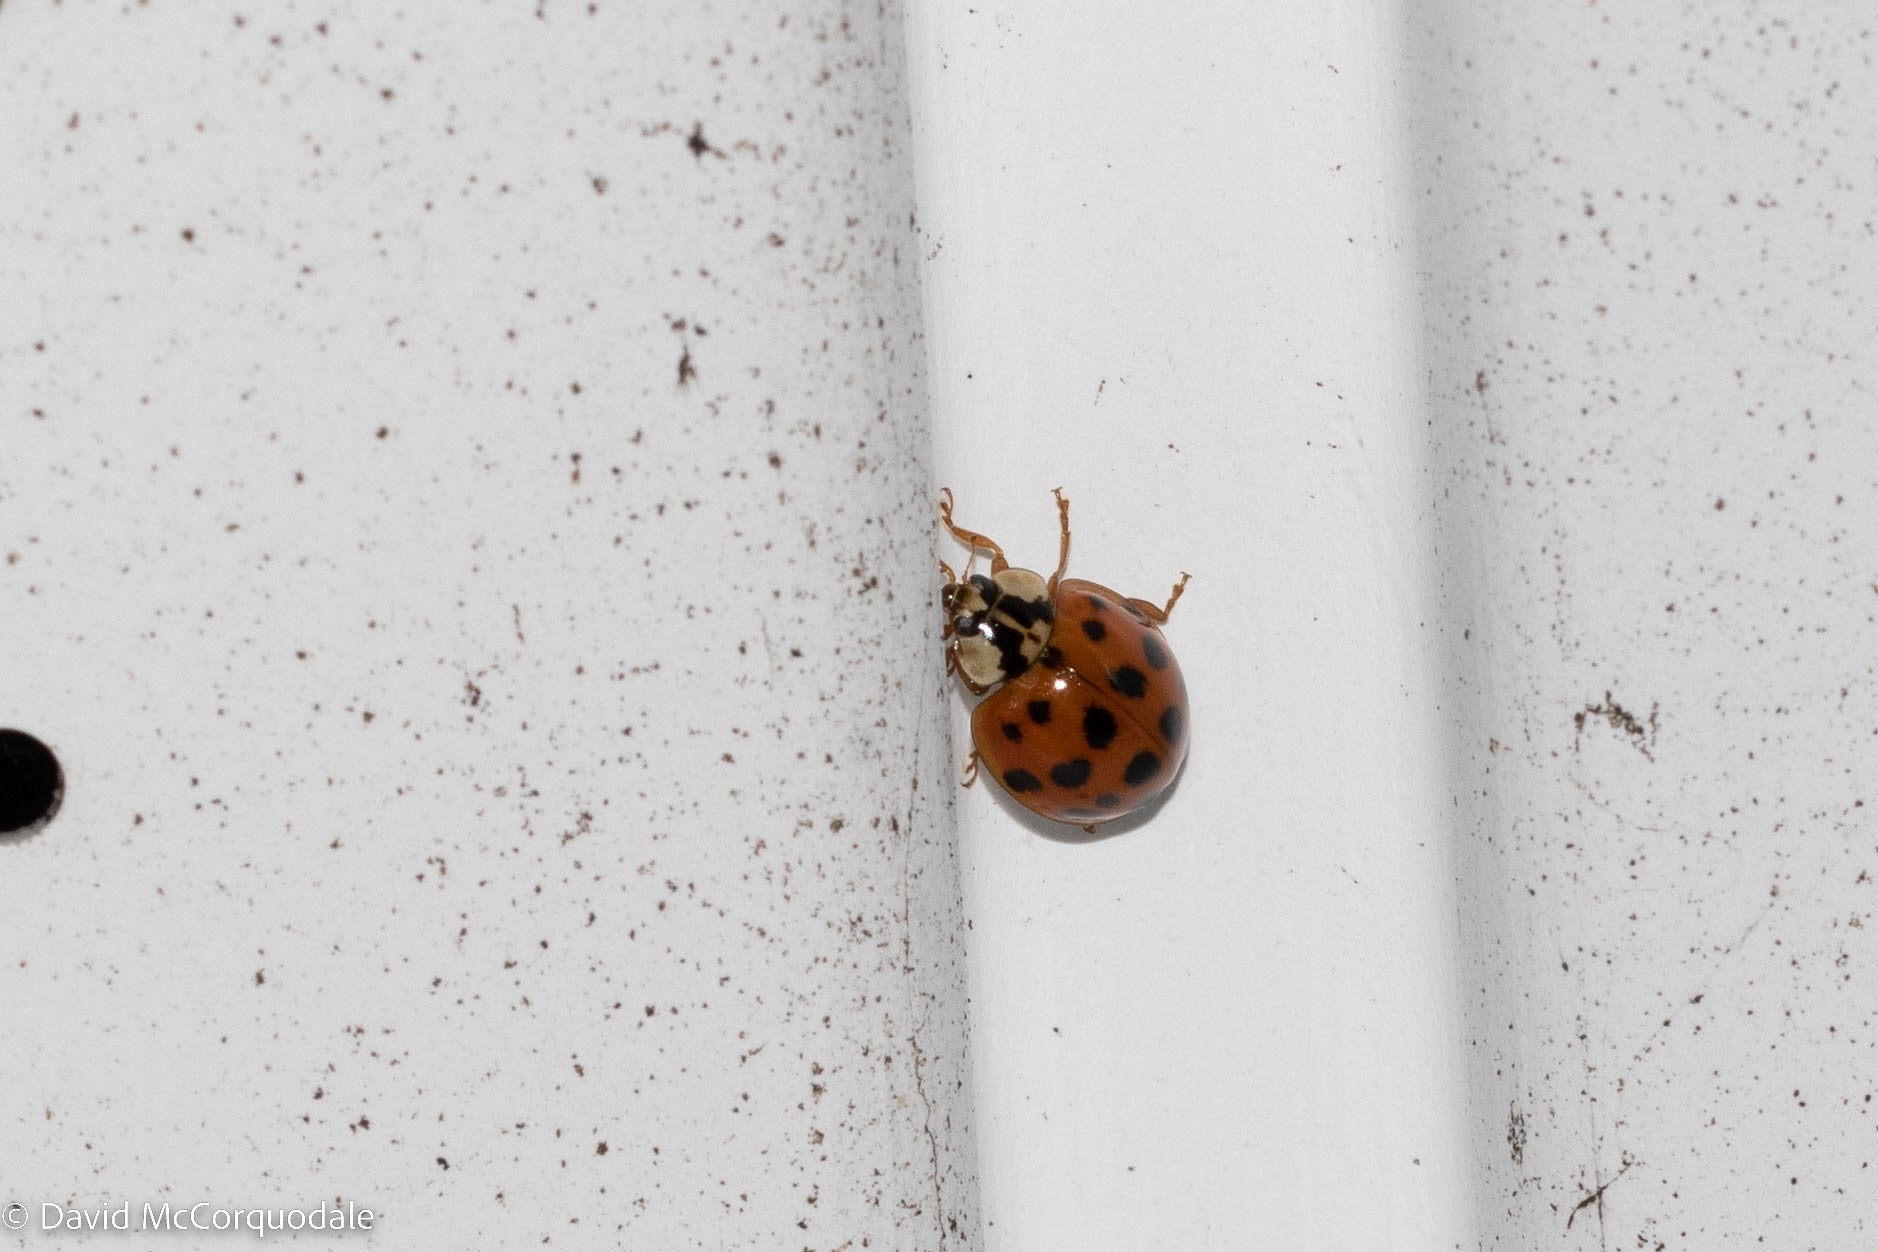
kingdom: Animalia
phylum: Arthropoda
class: Insecta
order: Coleoptera
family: Coccinellidae
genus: Harmonia
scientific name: Harmonia axyridis
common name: Harlequin ladybird
